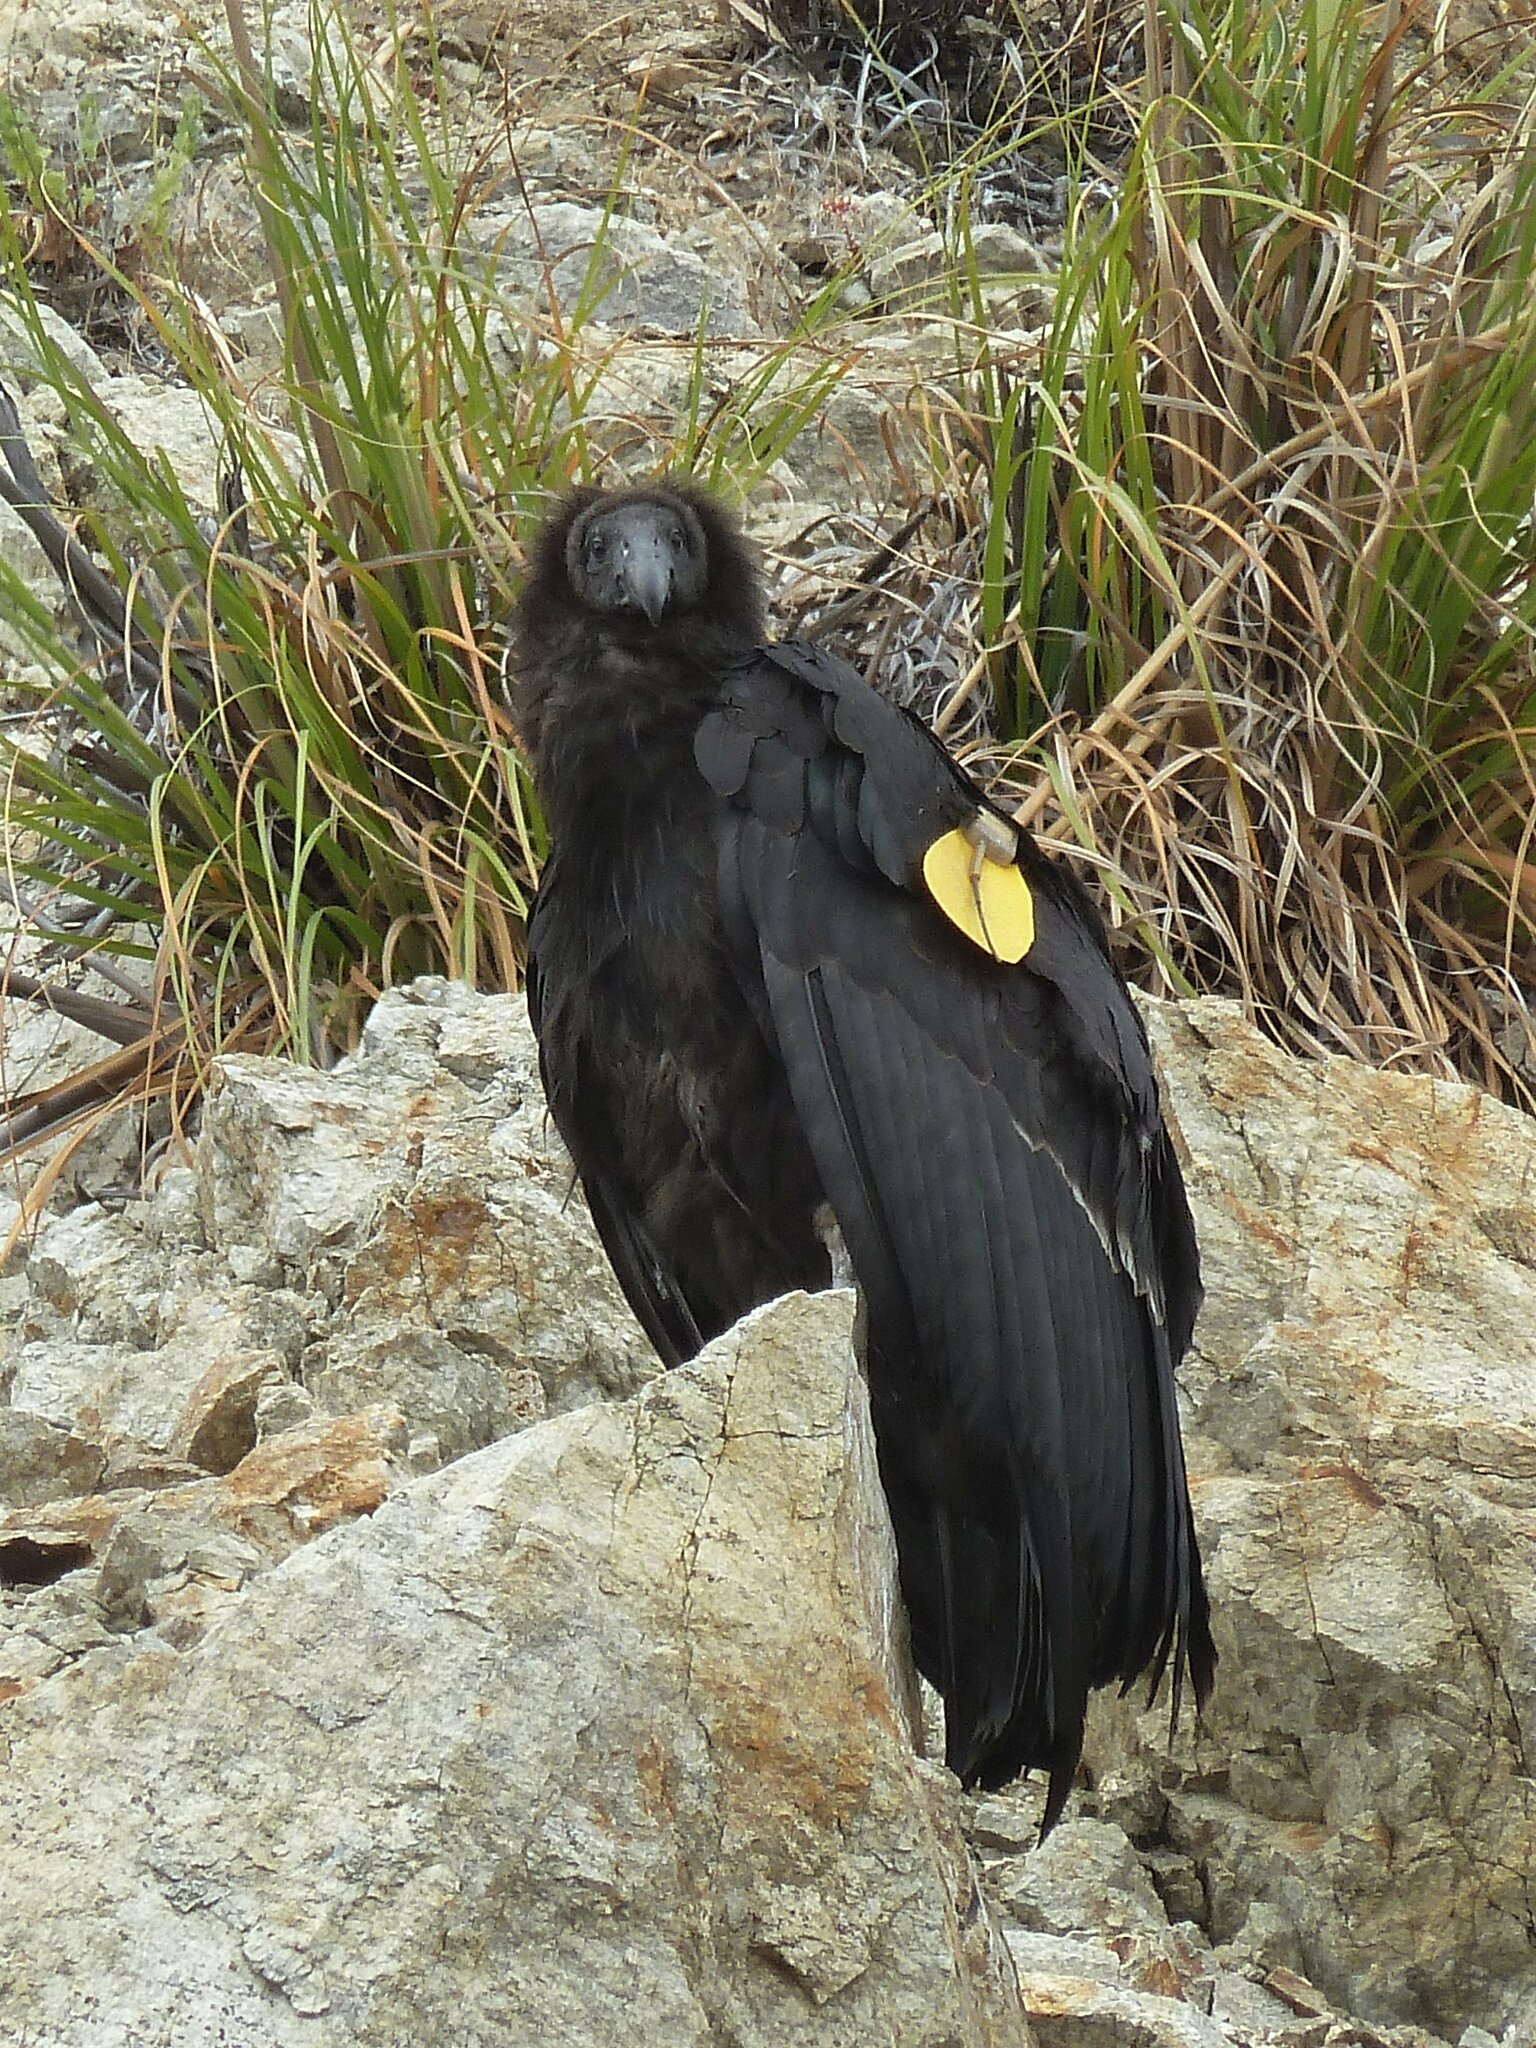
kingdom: Animalia
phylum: Chordata
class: Aves
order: Accipitriformes
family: Cathartidae
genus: Gymnogyps
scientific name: Gymnogyps californianus
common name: California condor
